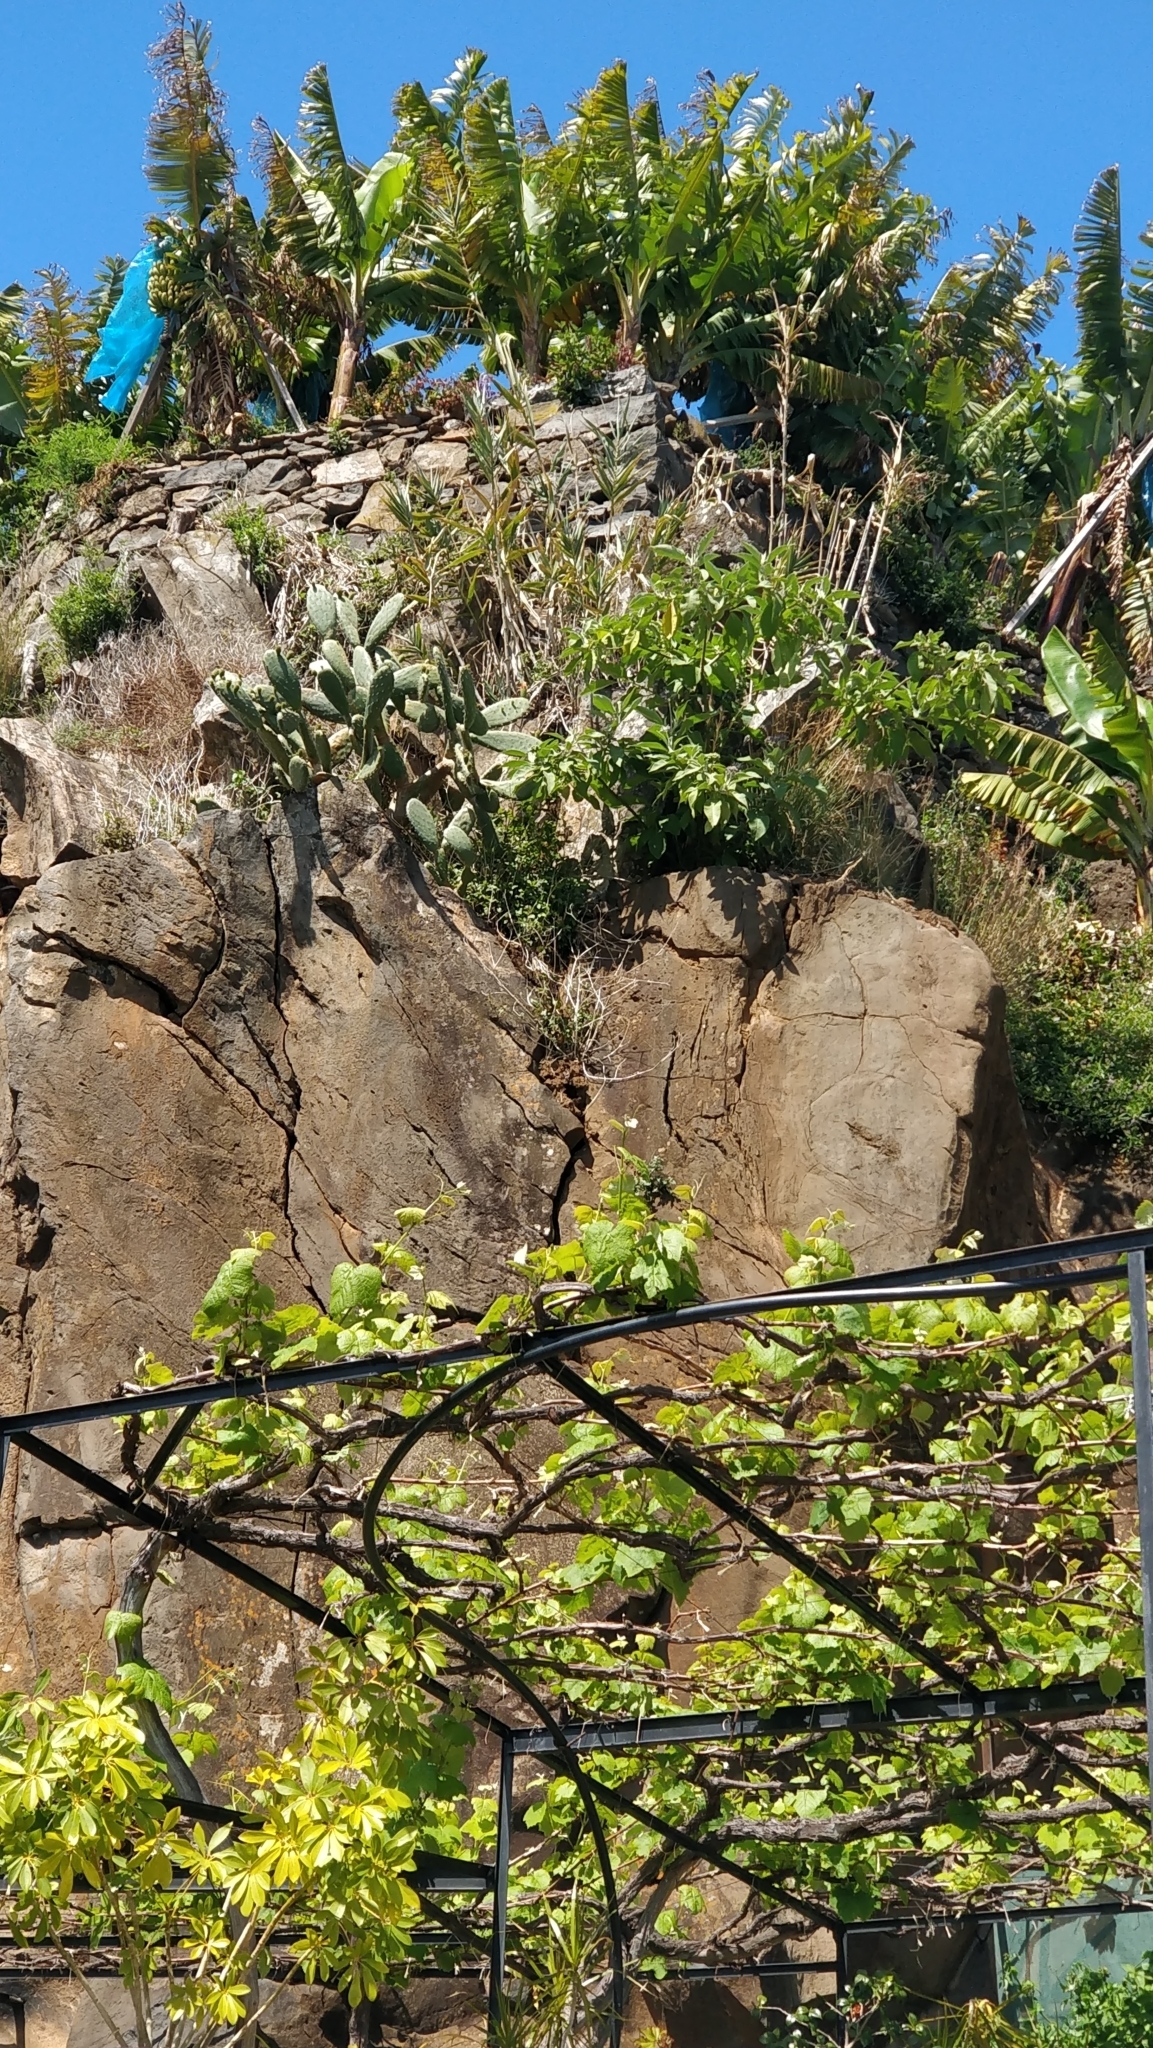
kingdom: Plantae
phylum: Tracheophyta
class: Magnoliopsida
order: Caryophyllales
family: Cactaceae
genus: Opuntia
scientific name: Opuntia ficus-indica
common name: Barbary fig
